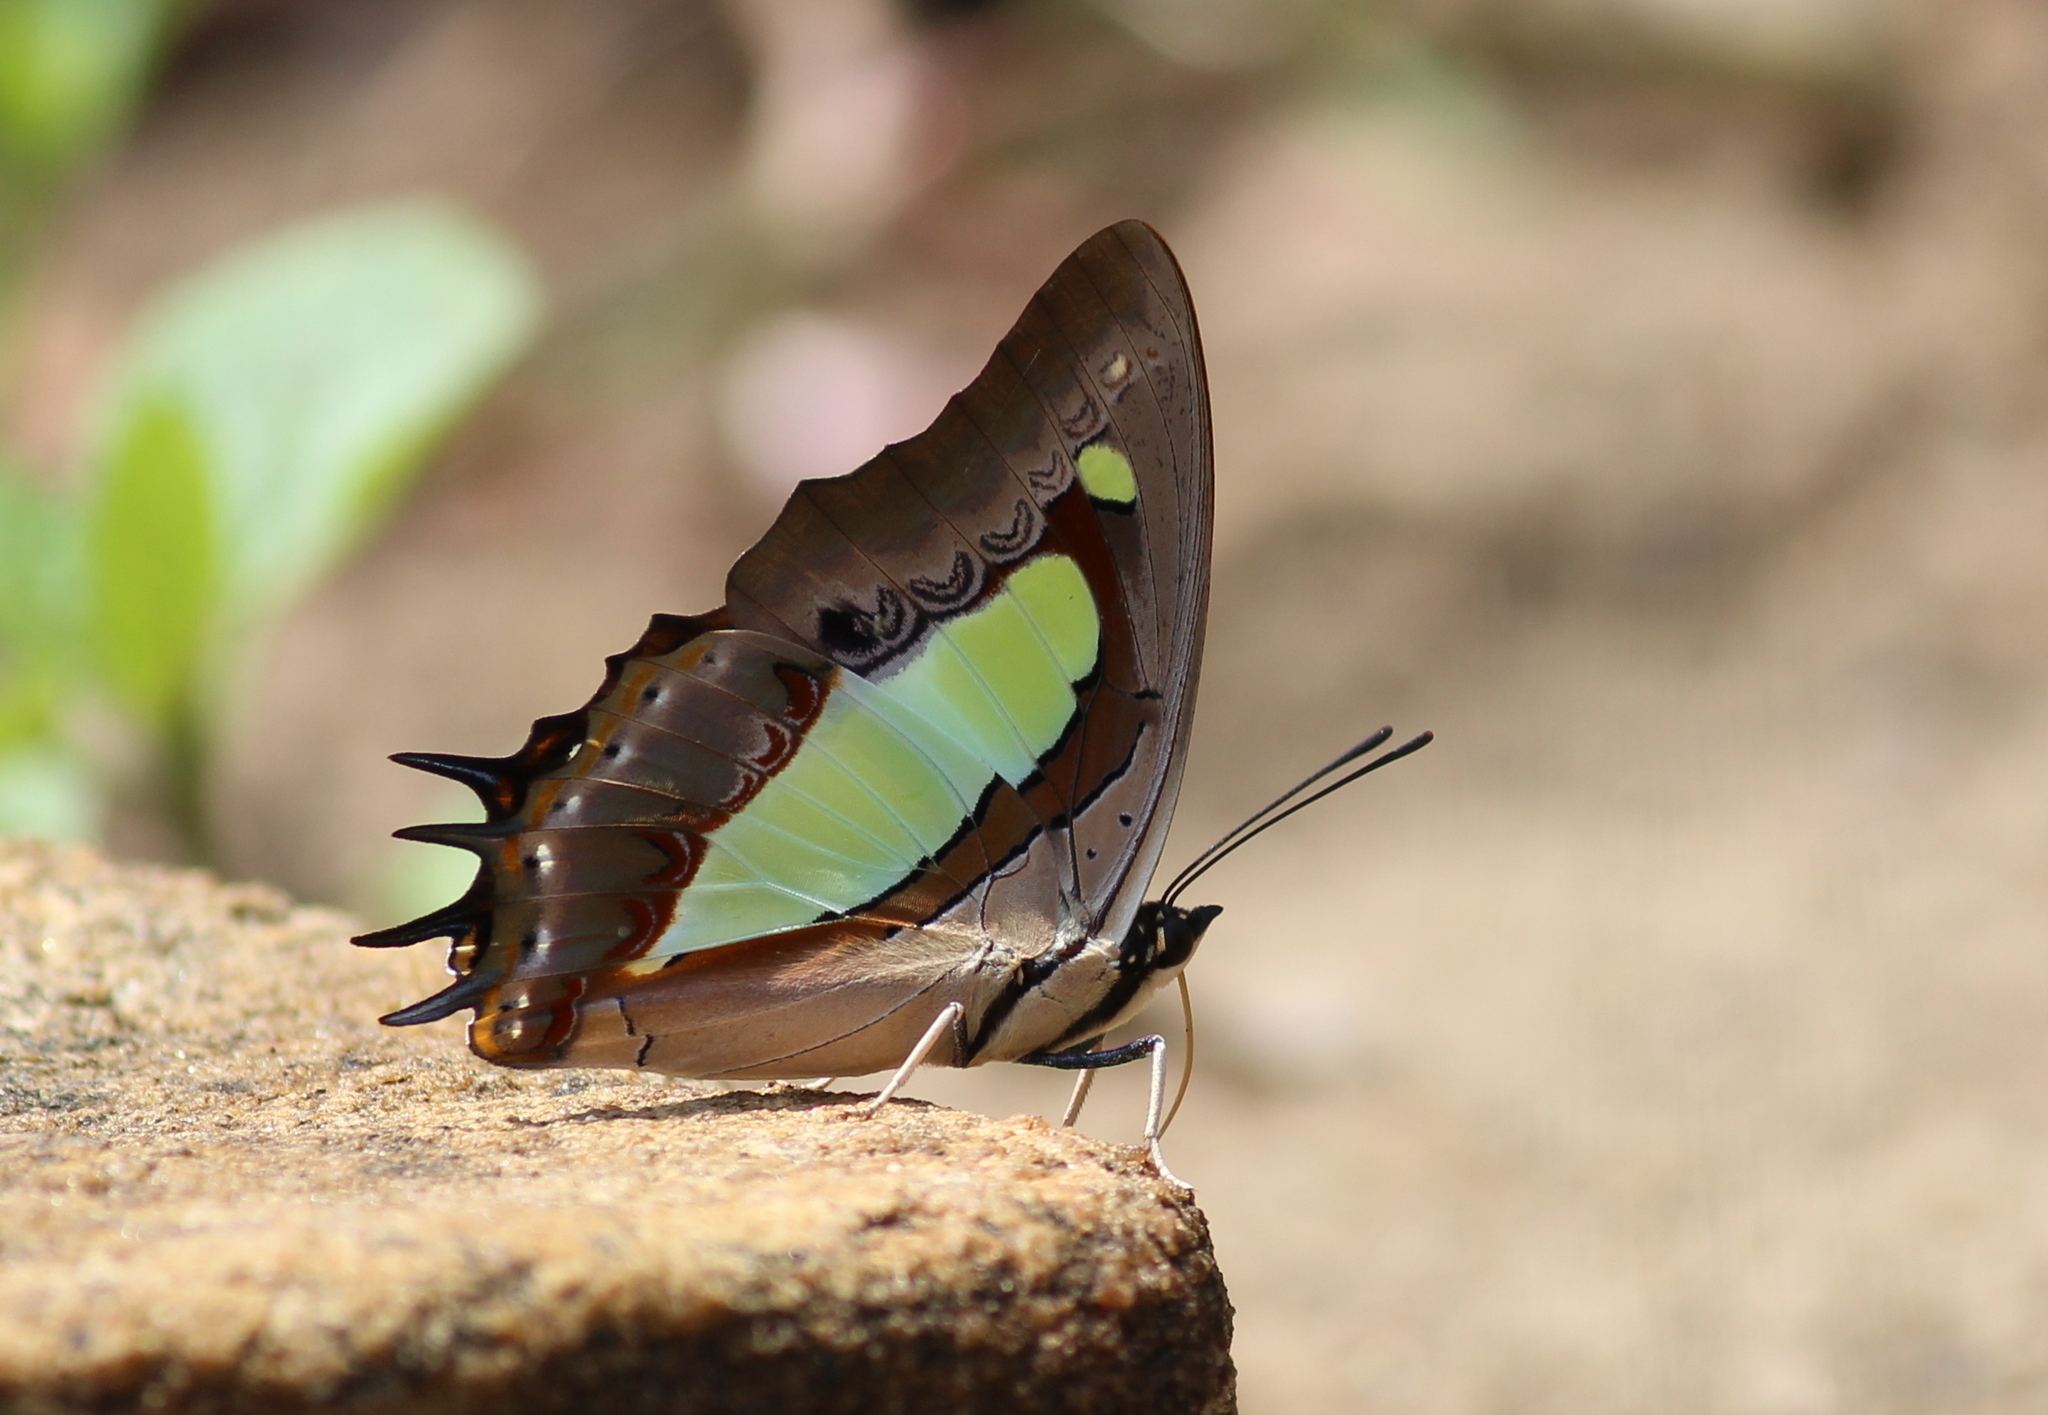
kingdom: Animalia
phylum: Arthropoda
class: Insecta
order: Lepidoptera
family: Nymphalidae
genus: Polyura
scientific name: Polyura
